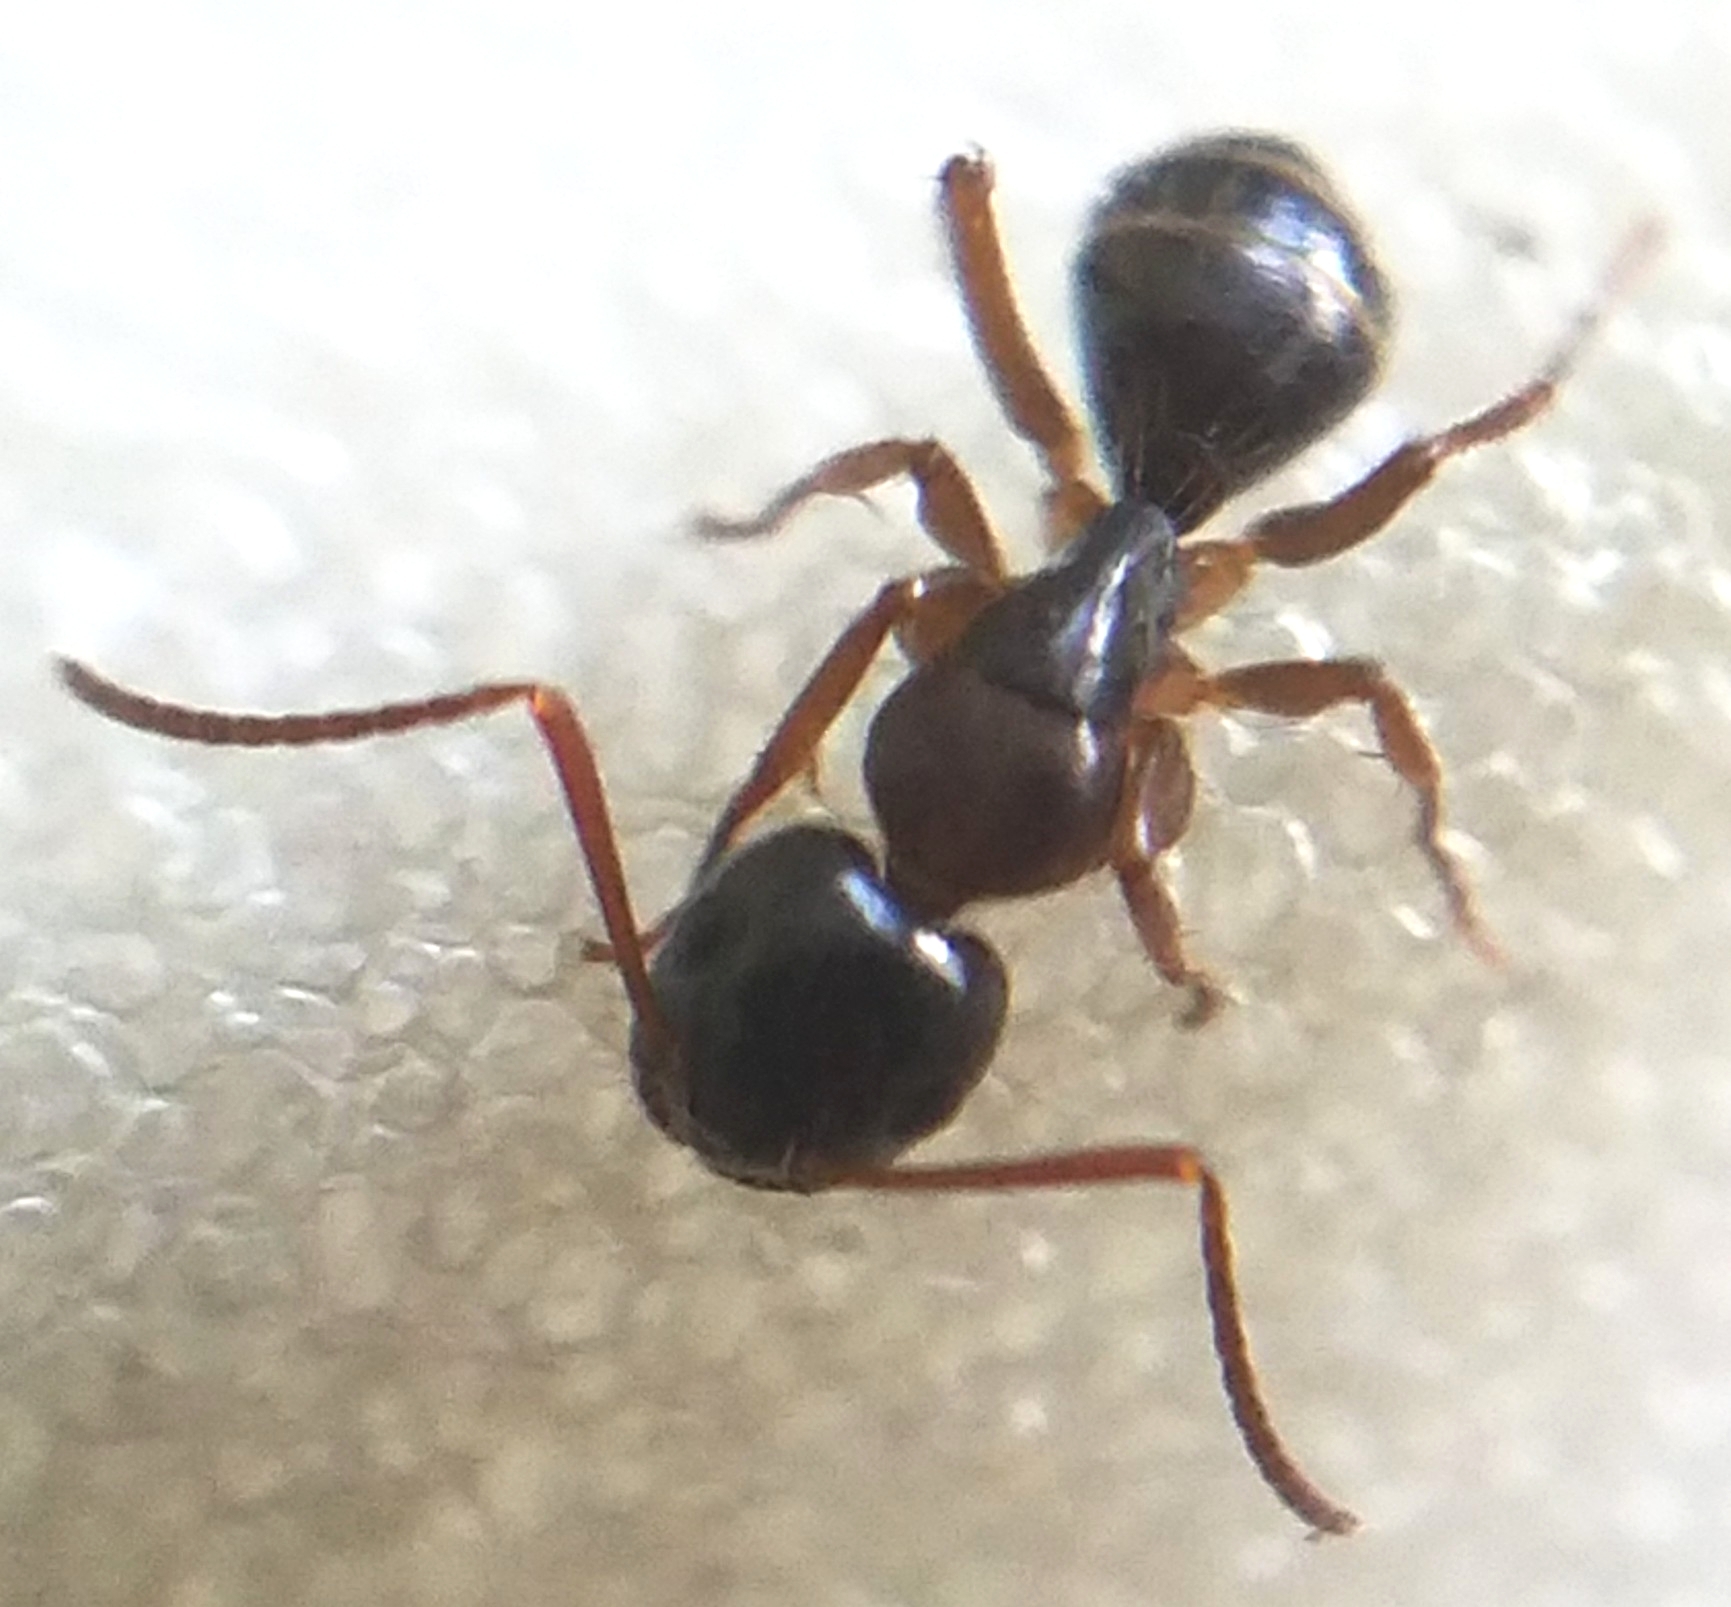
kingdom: Animalia
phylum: Arthropoda
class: Insecta
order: Hymenoptera
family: Formicidae
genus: Camponotus
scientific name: Camponotus fallax
